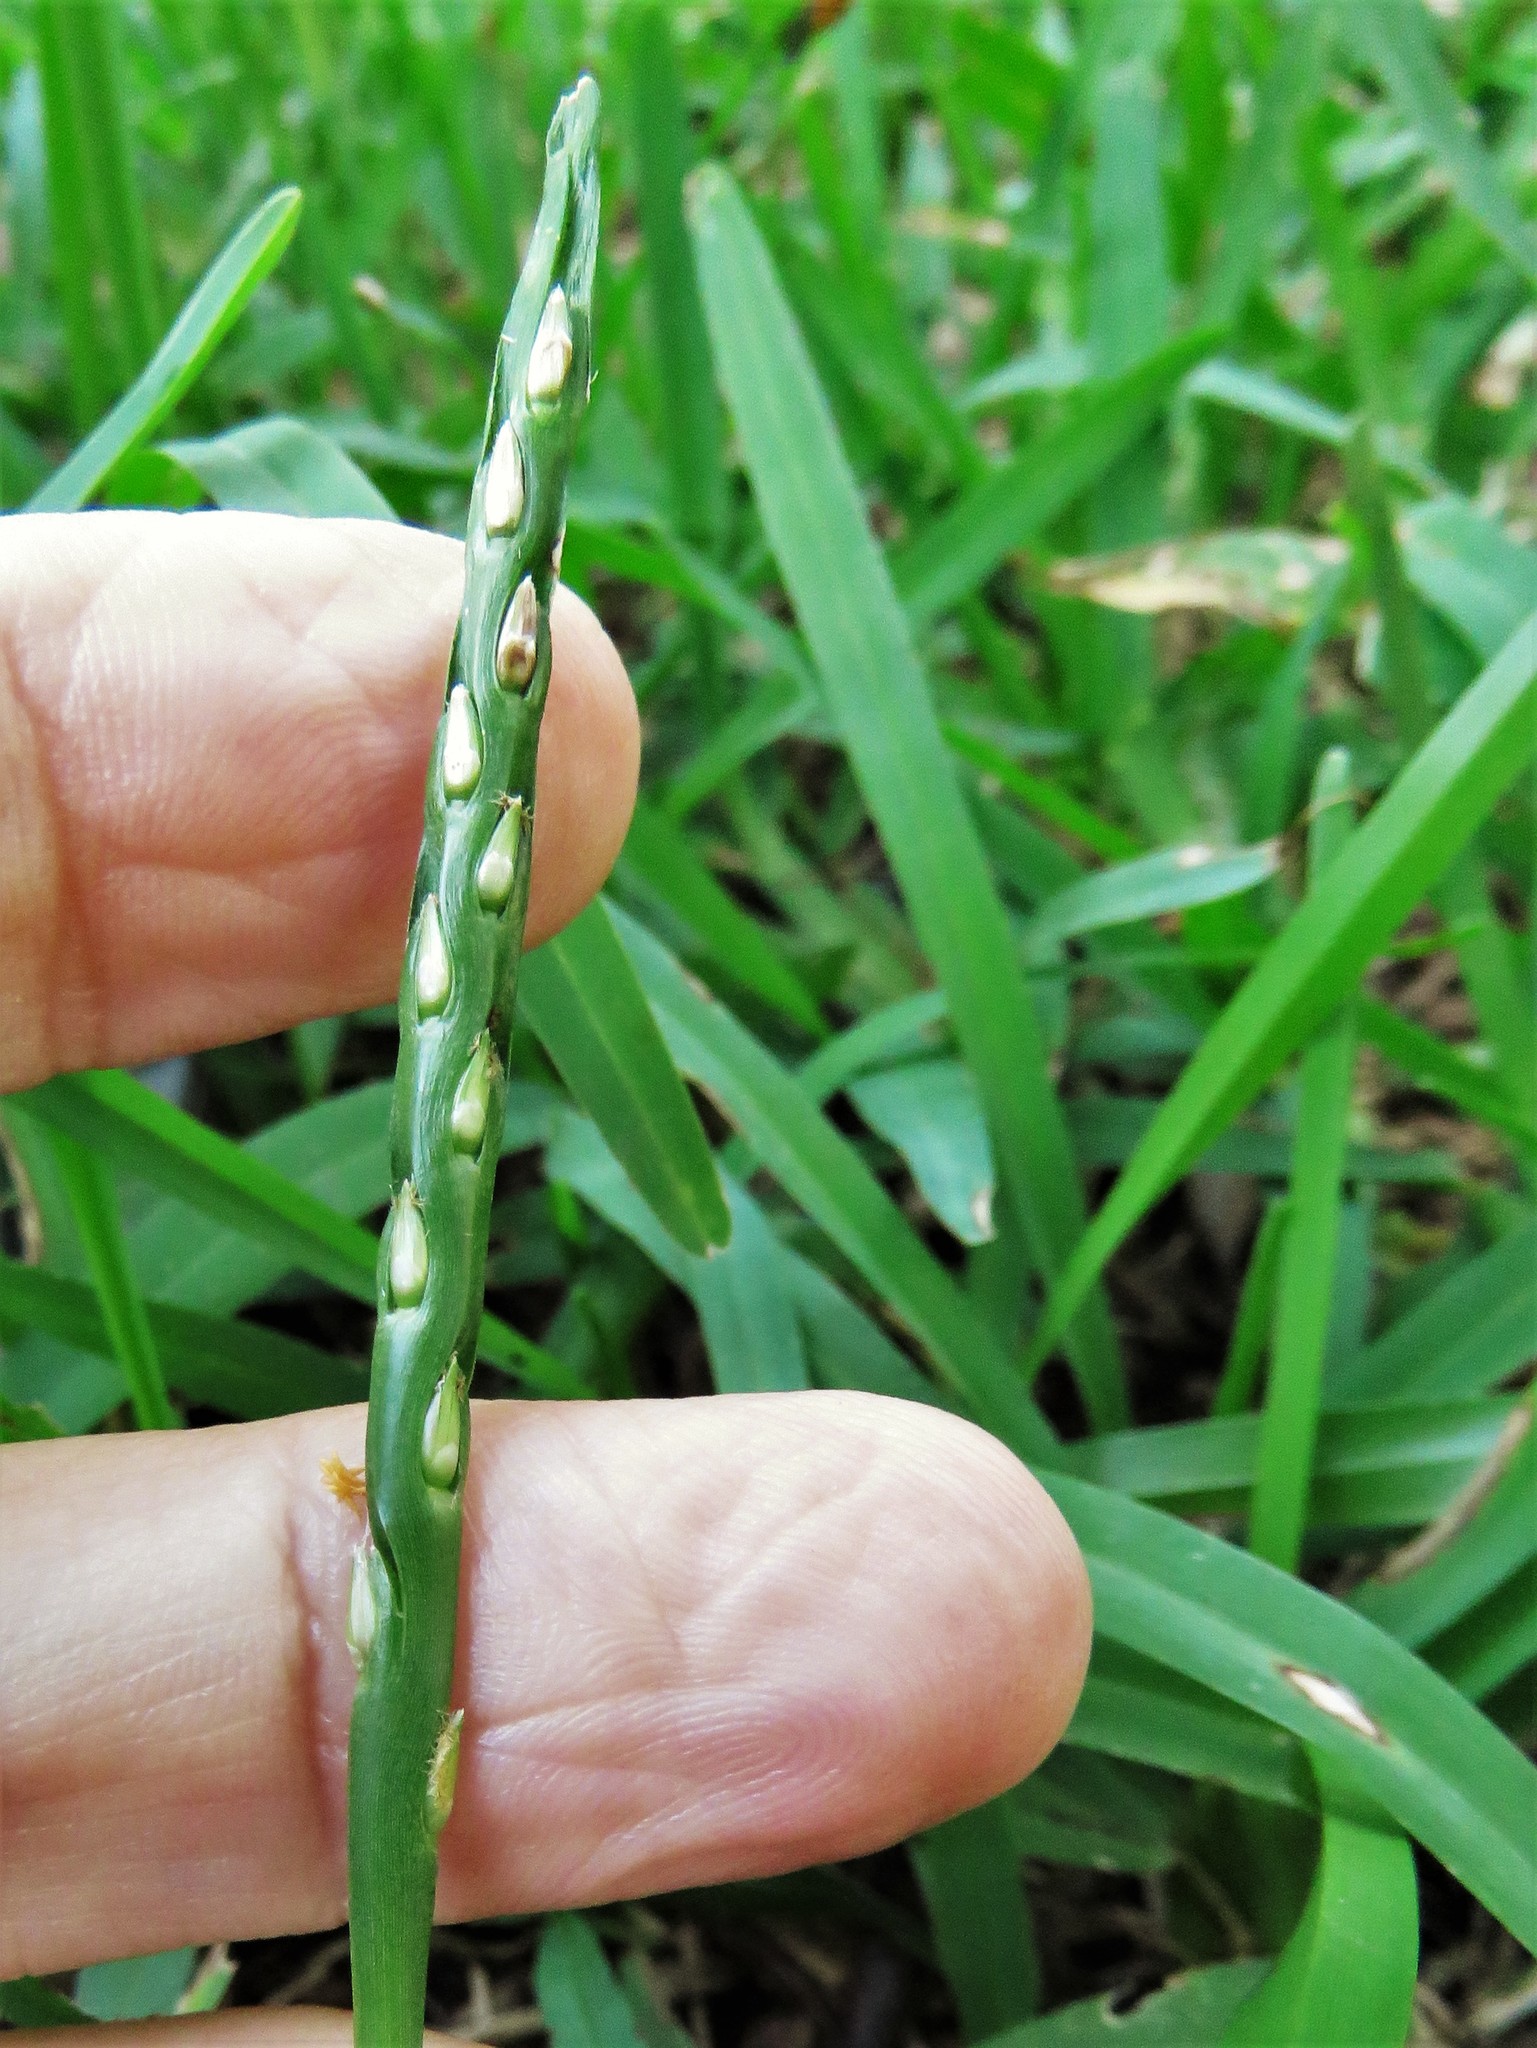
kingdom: Plantae
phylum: Tracheophyta
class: Liliopsida
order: Poales
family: Poaceae
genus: Stenotaphrum
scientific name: Stenotaphrum secundatum
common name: St. augustine grass
